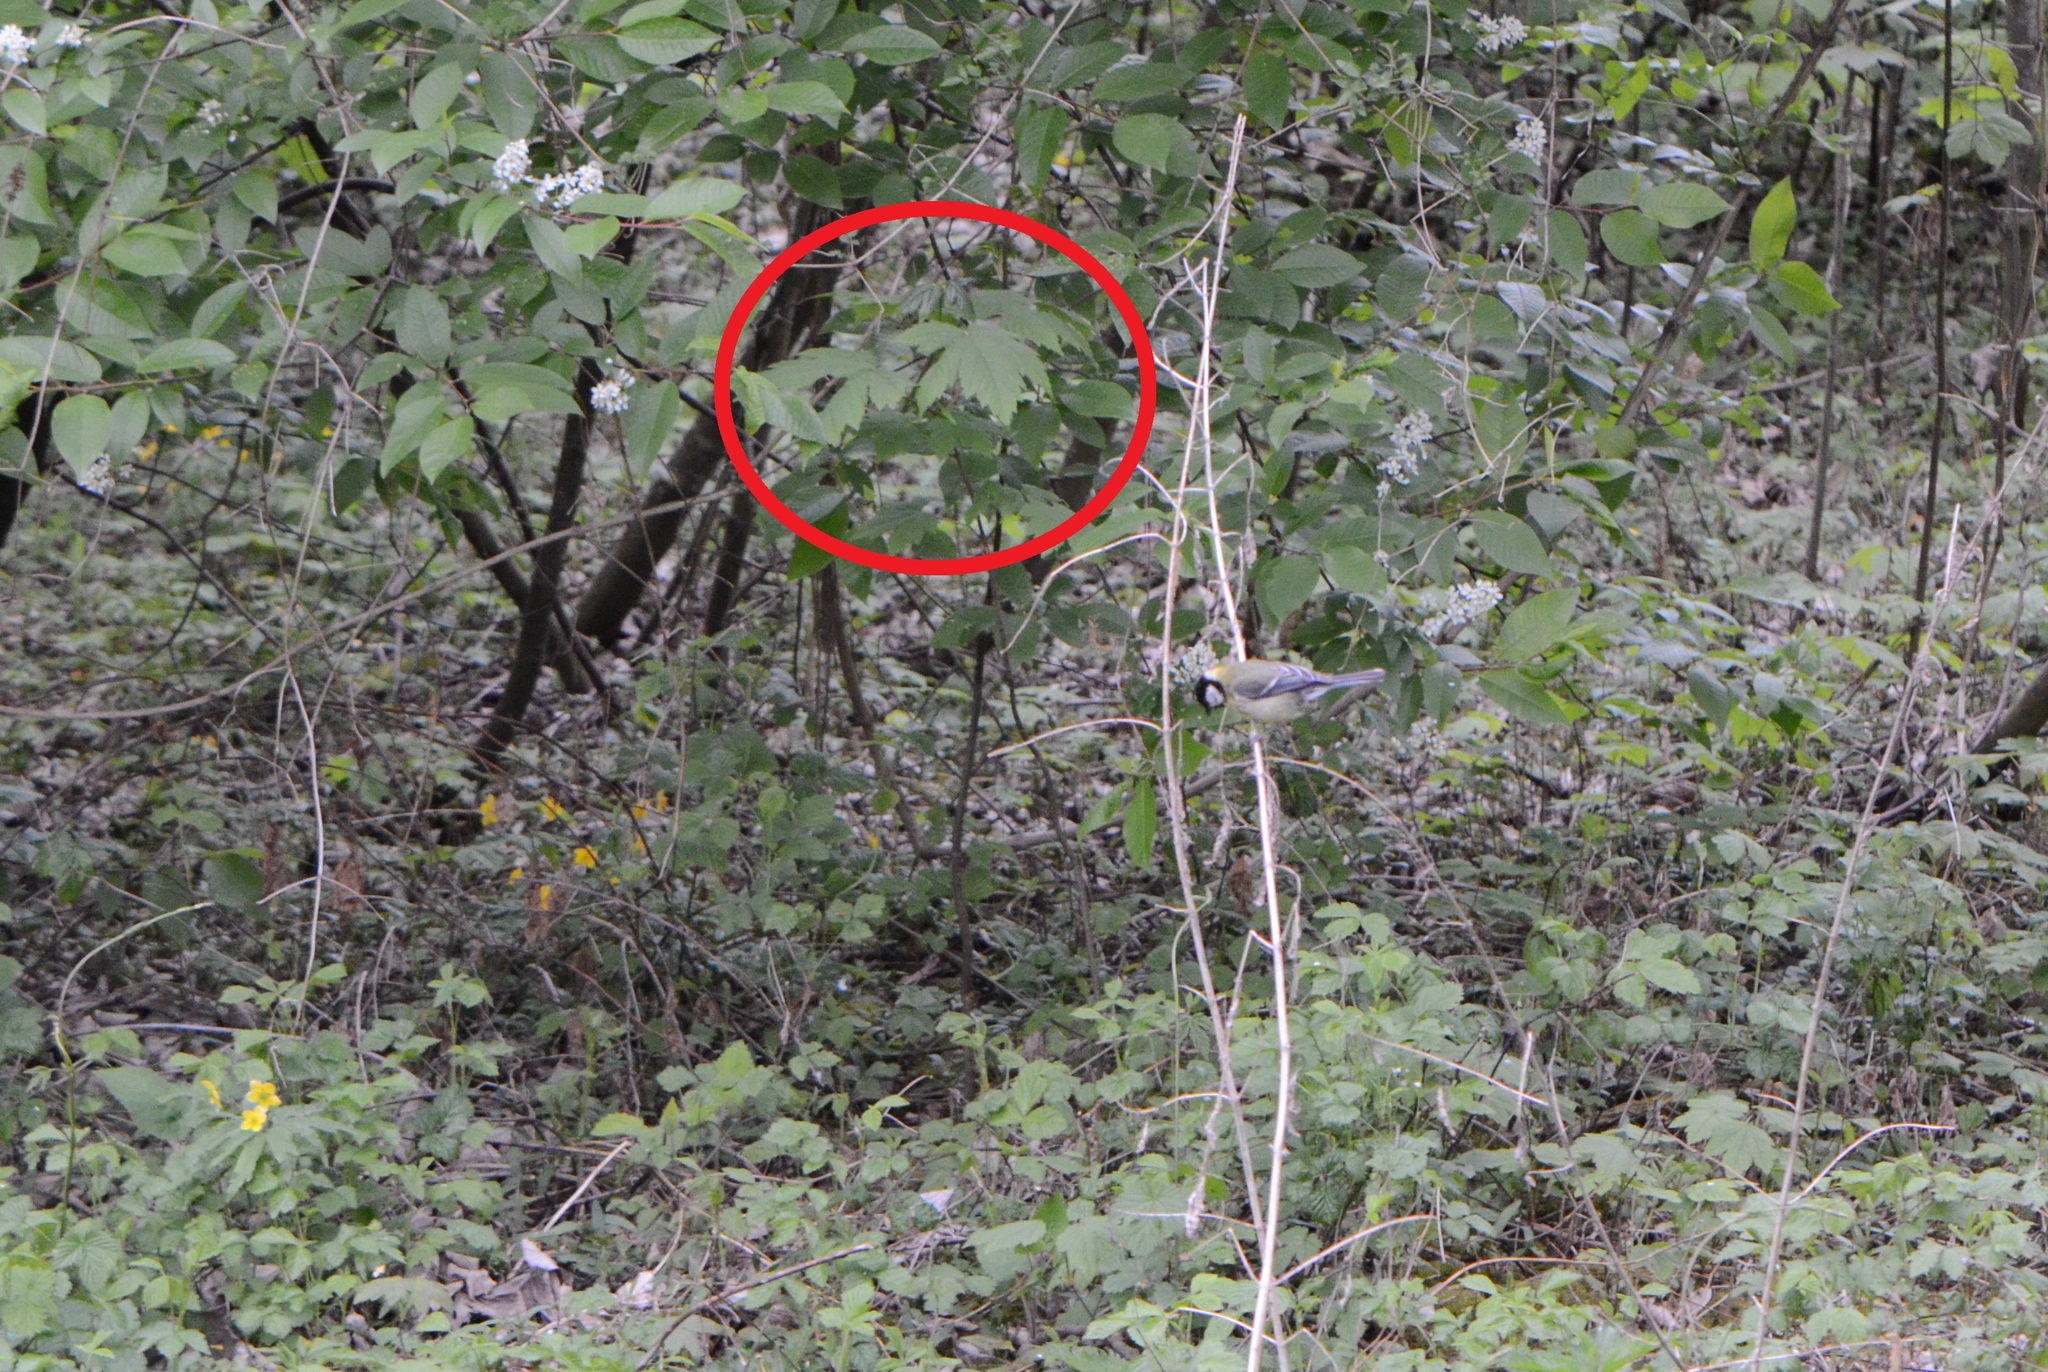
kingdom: Plantae
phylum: Tracheophyta
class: Magnoliopsida
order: Sapindales
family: Sapindaceae
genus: Acer
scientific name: Acer pseudoplatanus
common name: Sycamore
